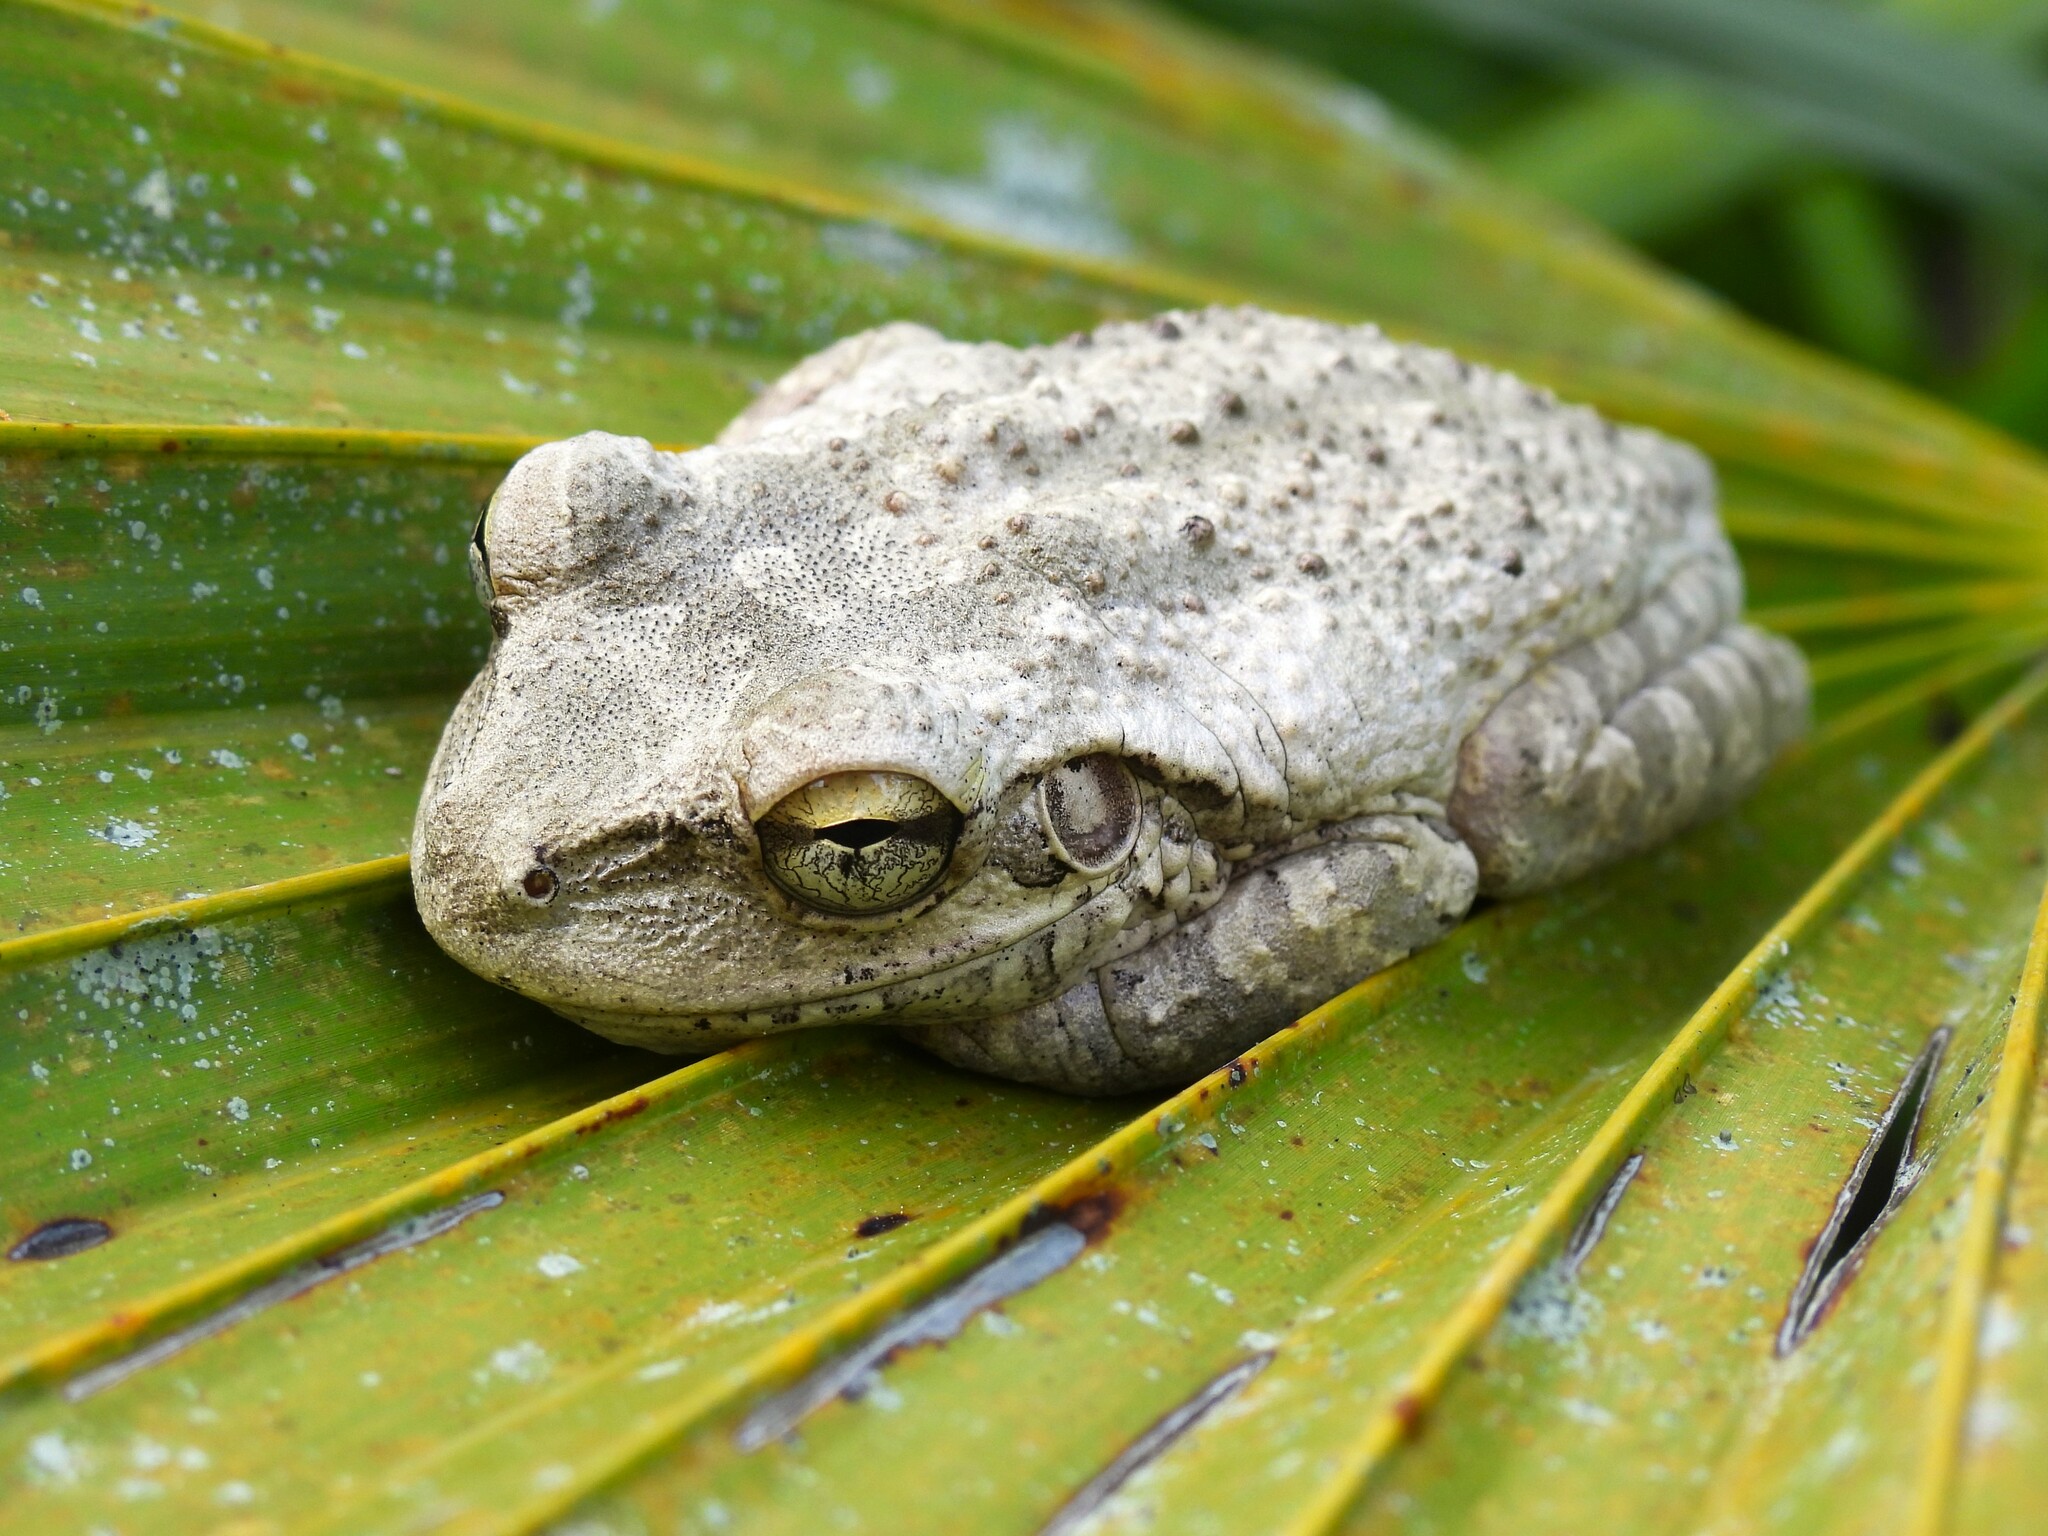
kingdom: Animalia
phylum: Chordata
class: Amphibia
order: Anura
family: Hylidae
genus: Osteopilus
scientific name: Osteopilus septentrionalis
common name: Cuban treefrog
